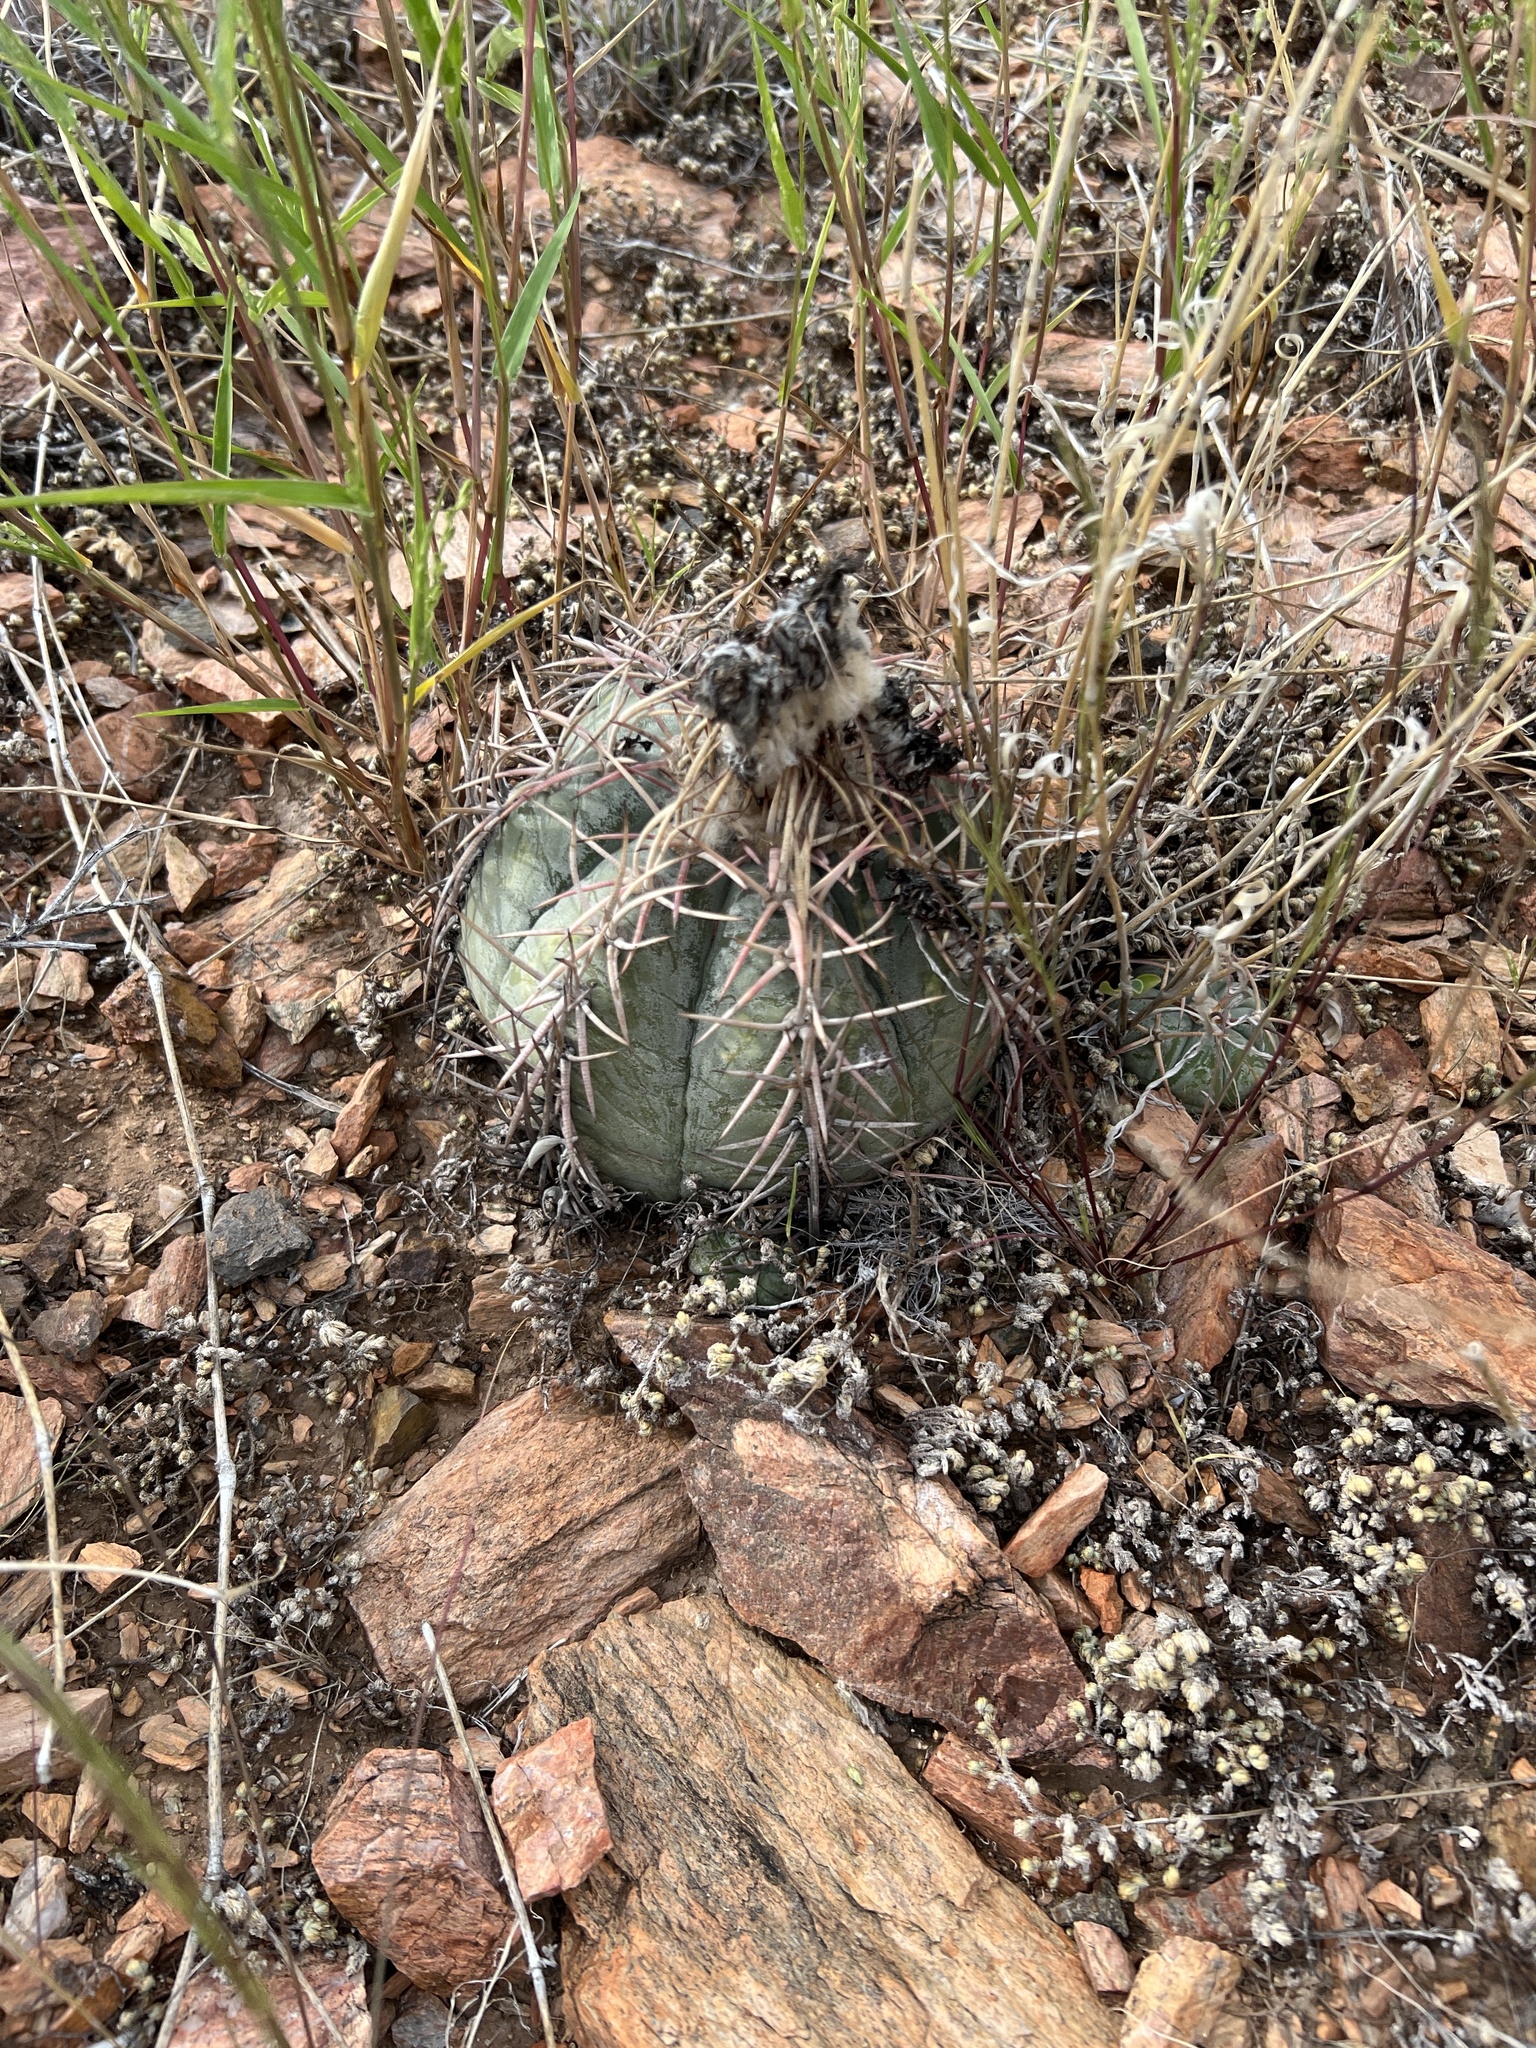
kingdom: Plantae
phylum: Tracheophyta
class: Magnoliopsida
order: Caryophyllales
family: Cactaceae
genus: Echinocactus
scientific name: Echinocactus horizonthalonius
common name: Devilshead
